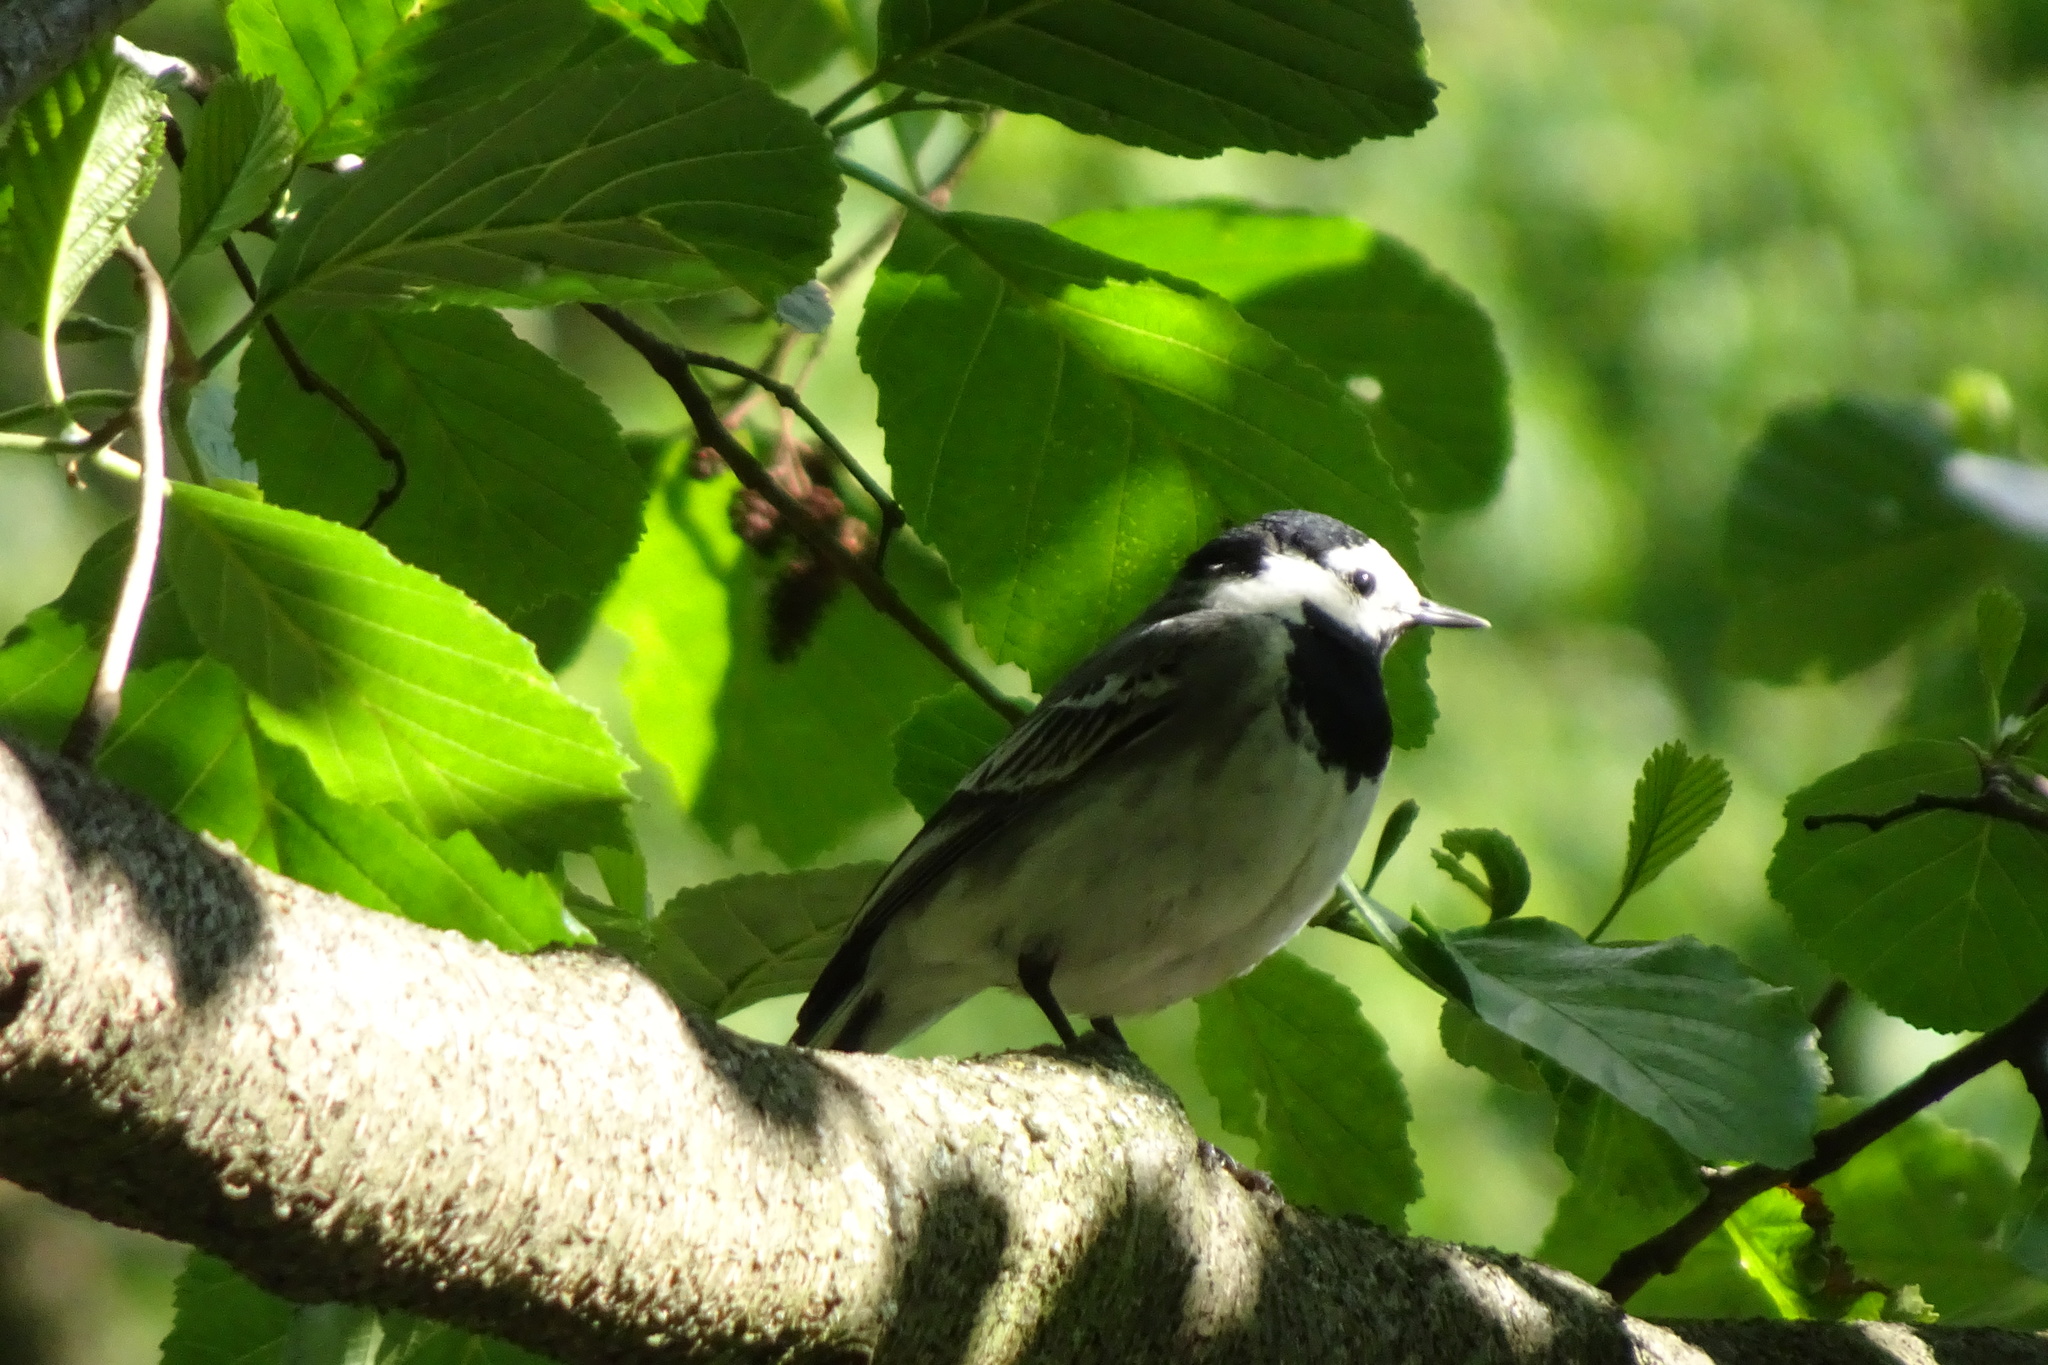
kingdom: Animalia
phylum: Chordata
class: Aves
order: Passeriformes
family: Motacillidae
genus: Motacilla
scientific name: Motacilla alba
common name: White wagtail
